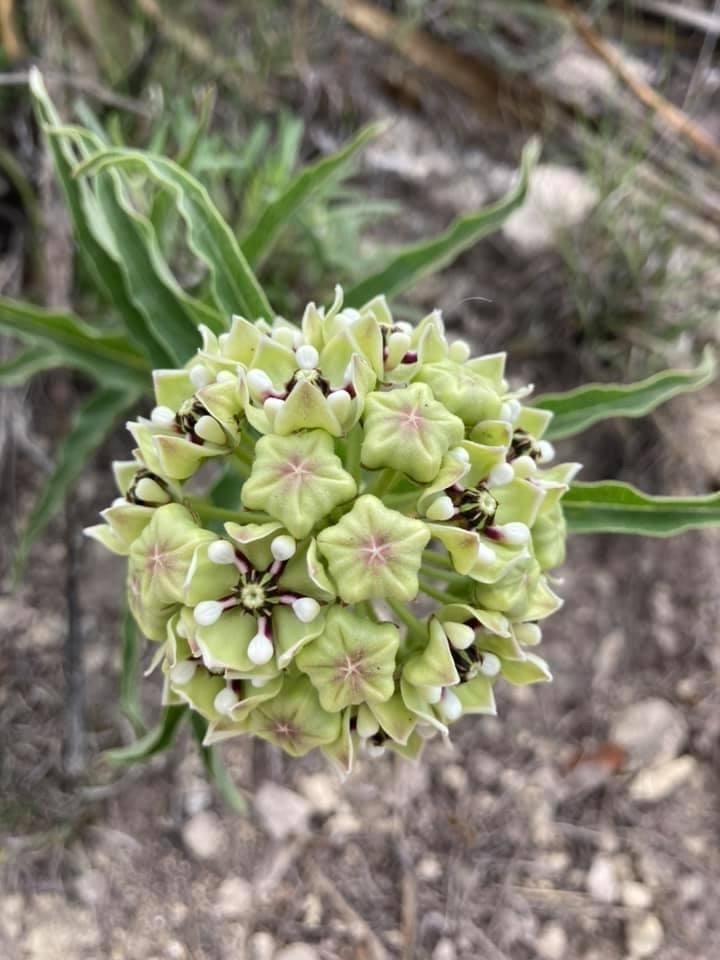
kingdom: Plantae
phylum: Tracheophyta
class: Magnoliopsida
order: Gentianales
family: Apocynaceae
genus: Asclepias
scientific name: Asclepias asperula
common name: Antelope horns
